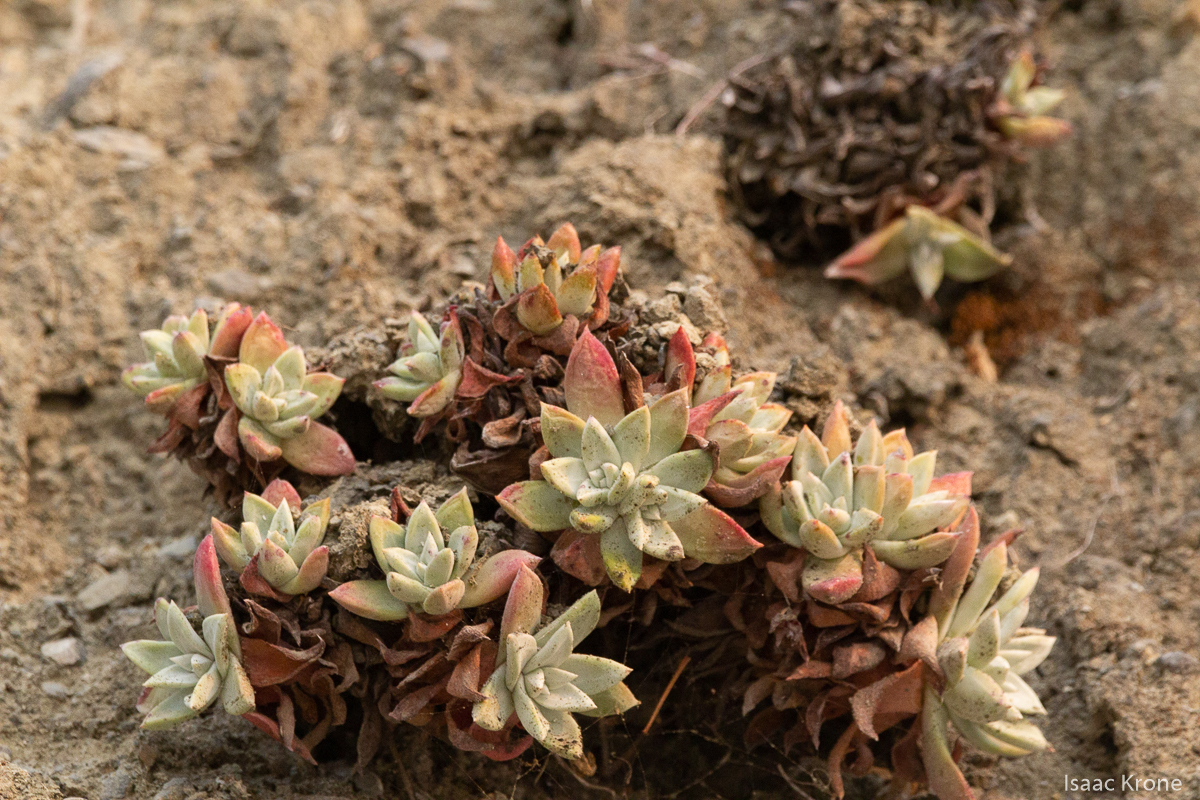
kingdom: Plantae
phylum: Tracheophyta
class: Magnoliopsida
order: Saxifragales
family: Crassulaceae
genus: Dudleya
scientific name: Dudleya farinosa
